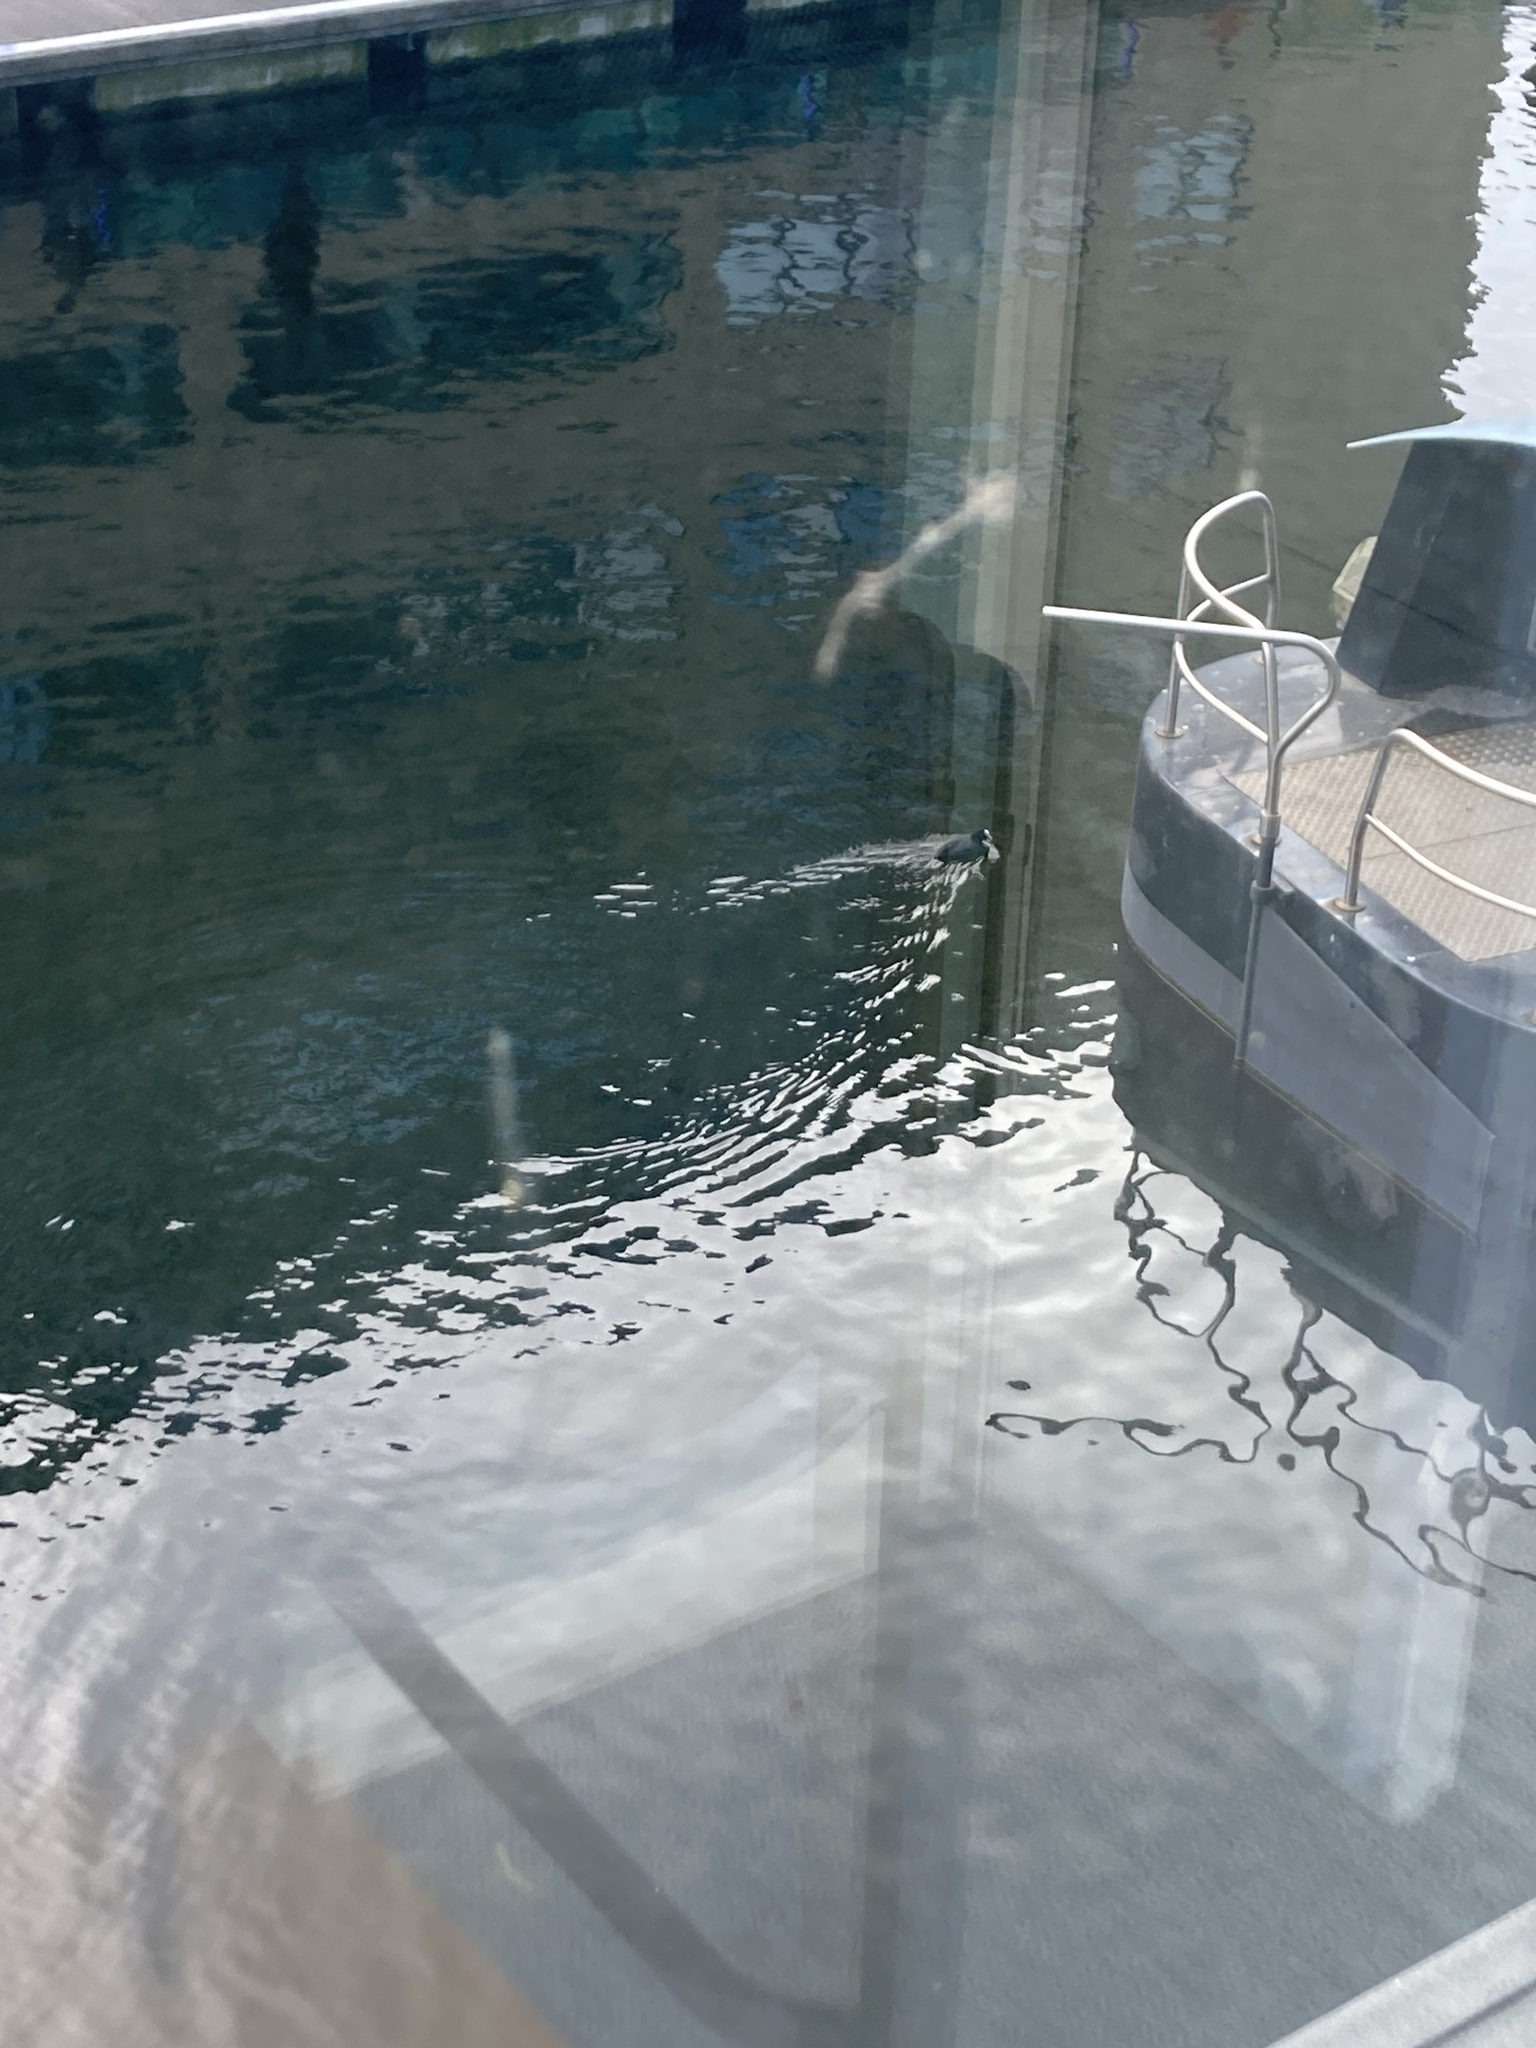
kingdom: Animalia
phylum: Chordata
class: Aves
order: Gruiformes
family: Rallidae
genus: Fulica
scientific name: Fulica atra
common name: Eurasian coot
